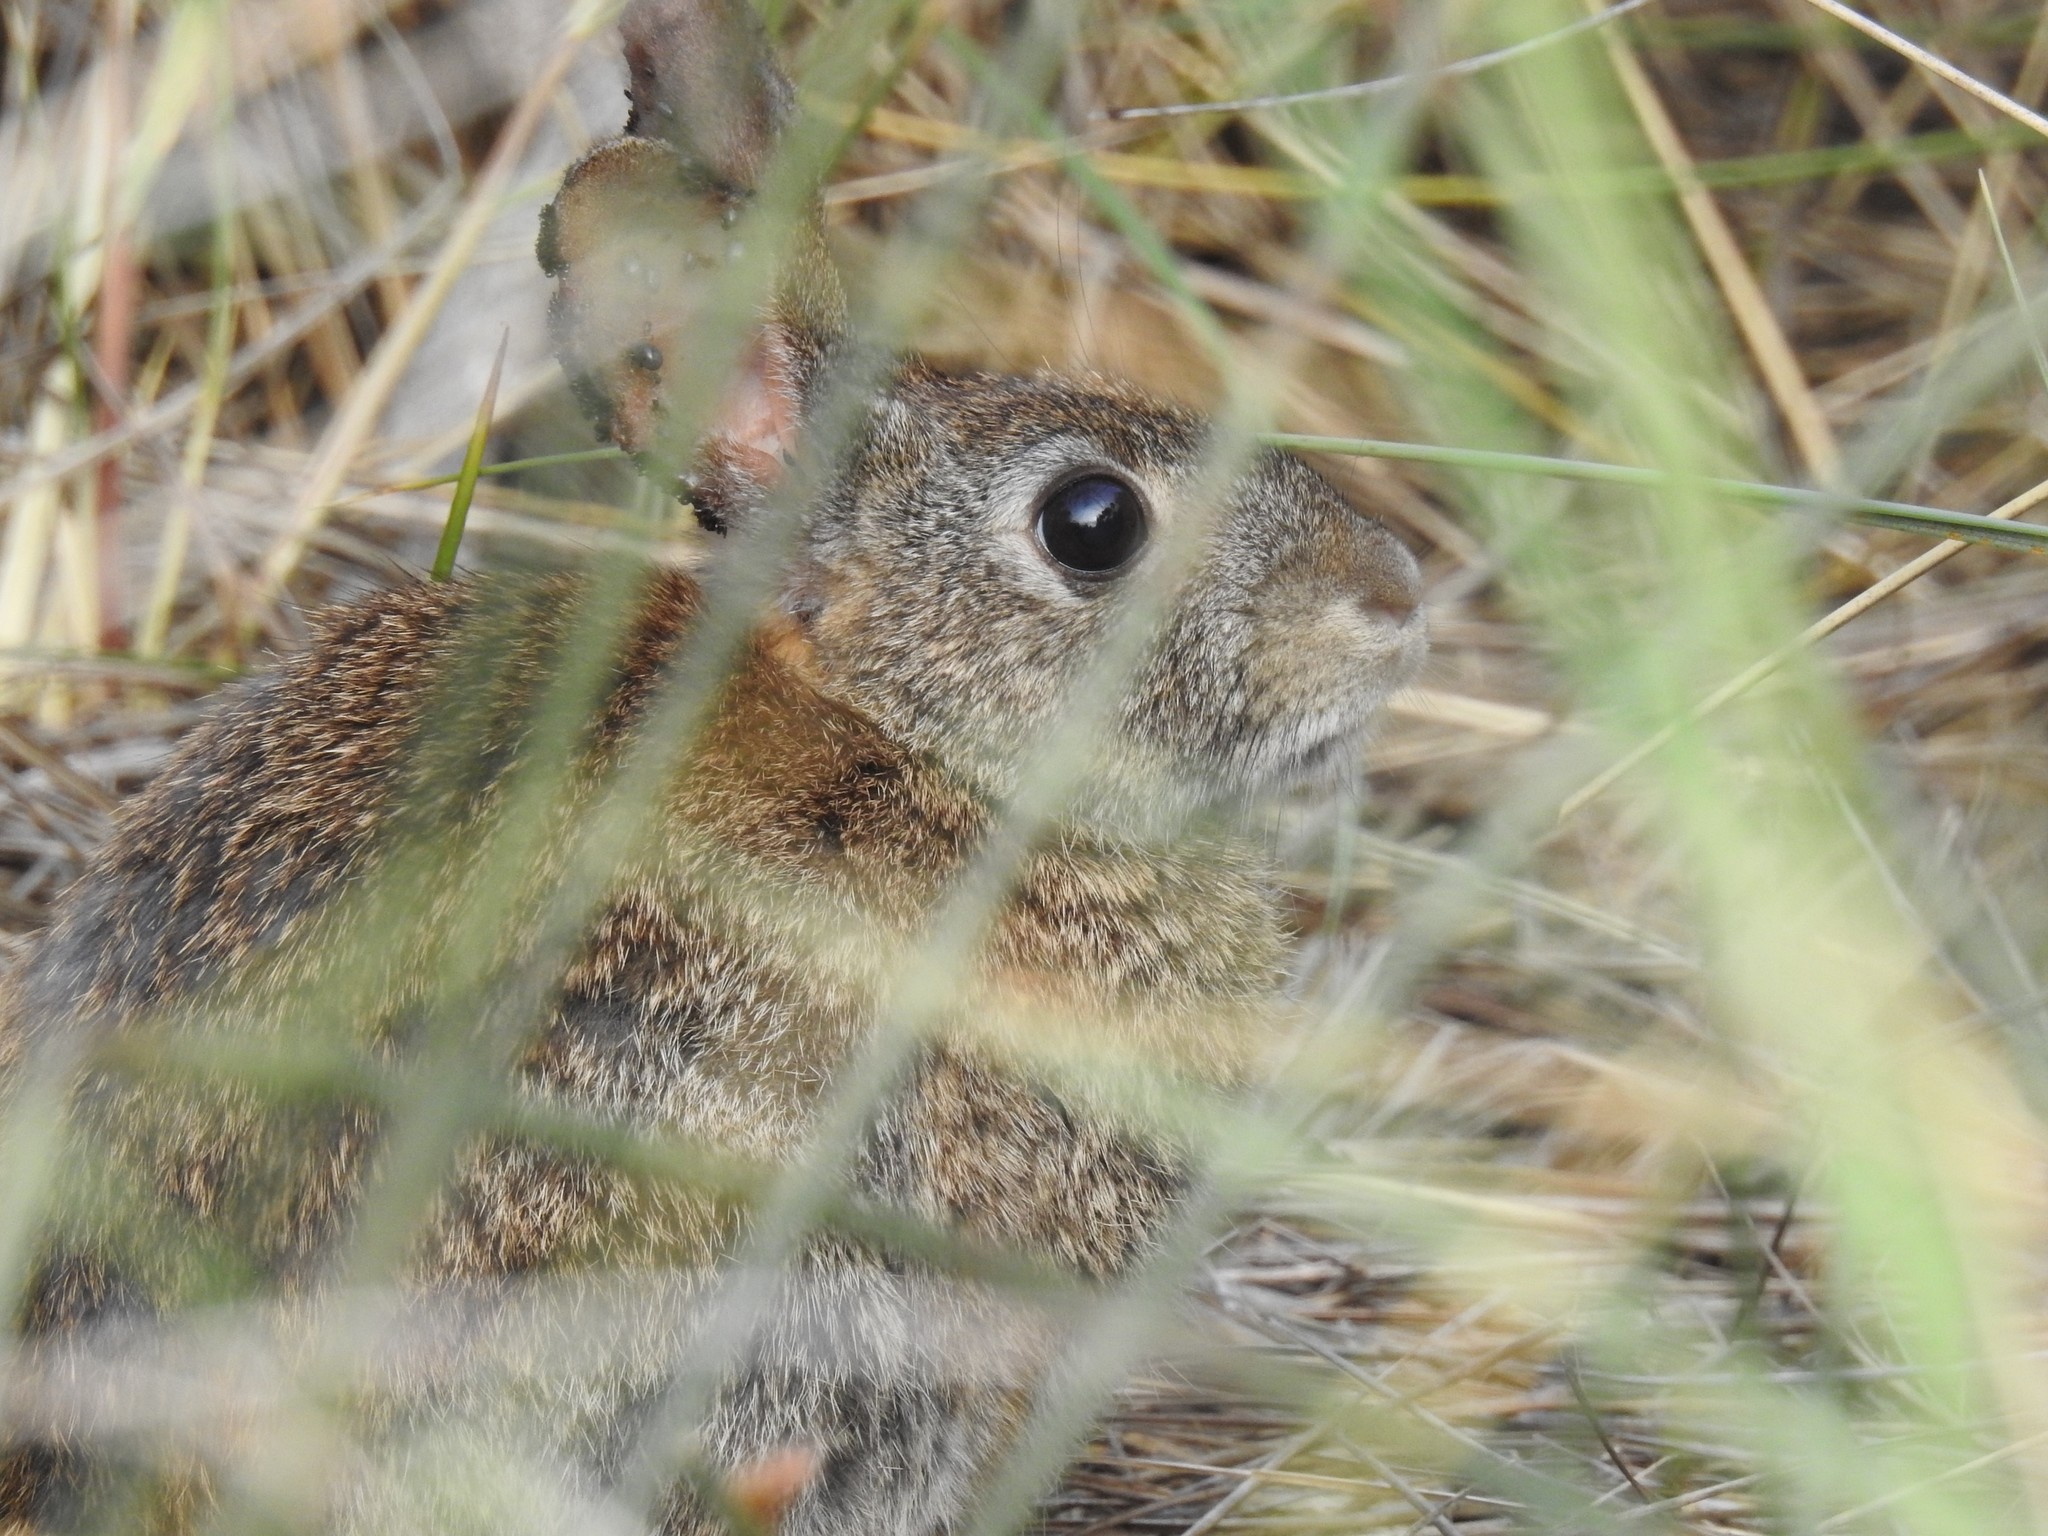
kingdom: Animalia
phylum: Chordata
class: Mammalia
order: Lagomorpha
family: Leporidae
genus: Sylvilagus
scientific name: Sylvilagus bachmani
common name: Brush rabbit
